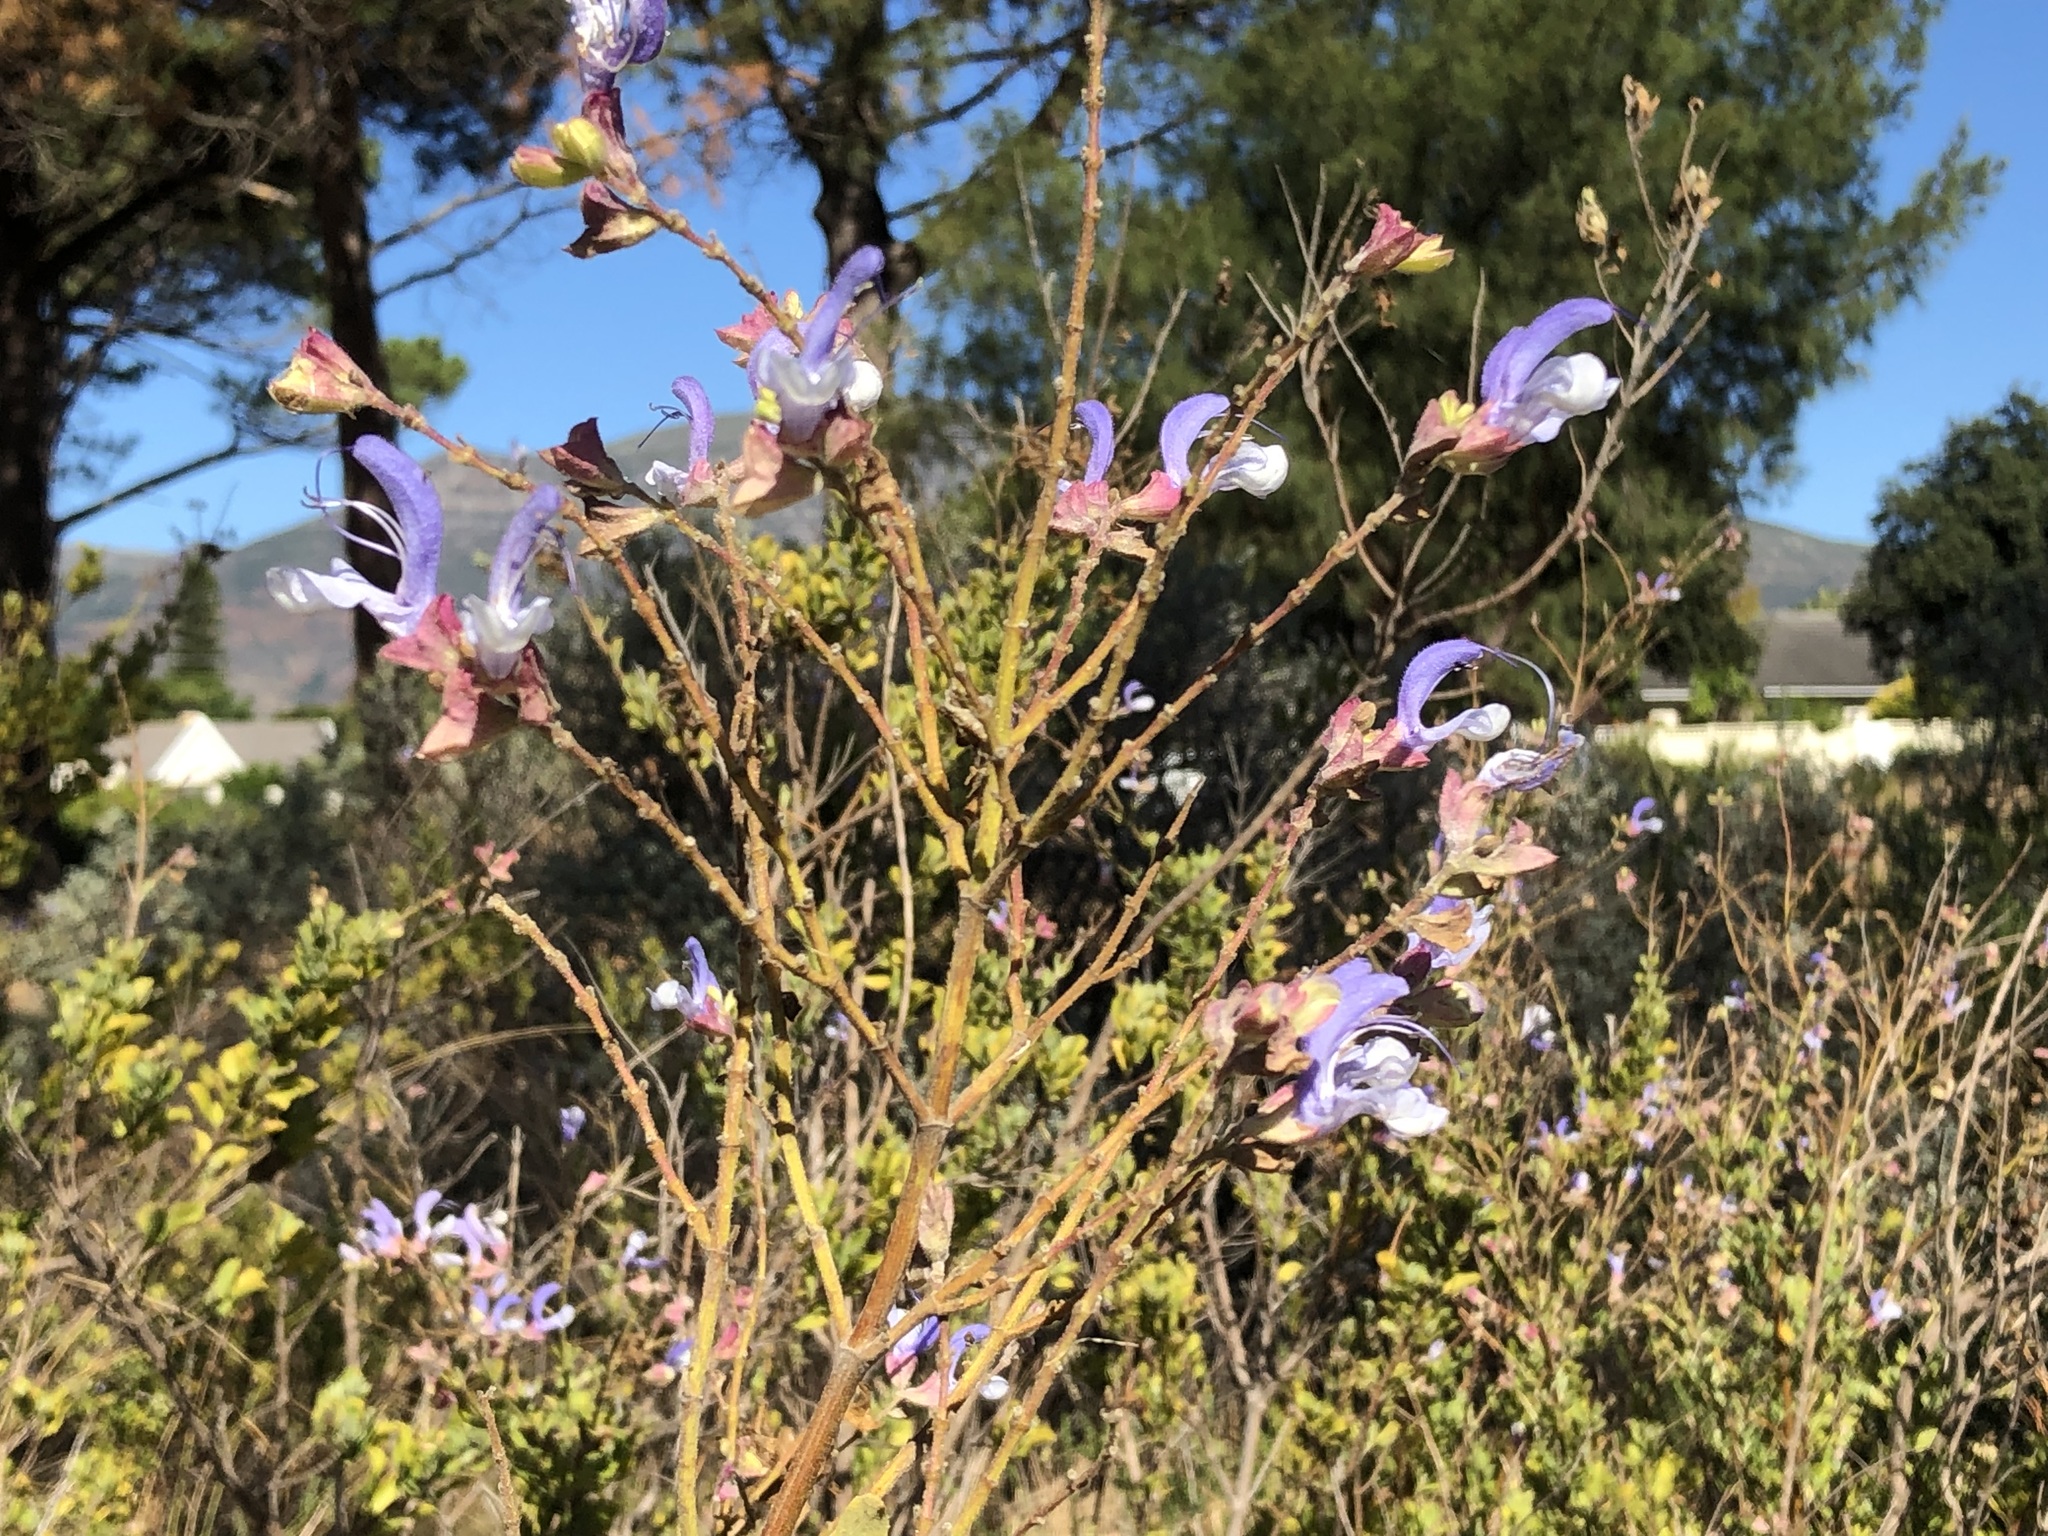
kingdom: Plantae
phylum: Tracheophyta
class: Magnoliopsida
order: Lamiales
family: Lamiaceae
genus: Salvia
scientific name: Salvia chamelaeagnea
